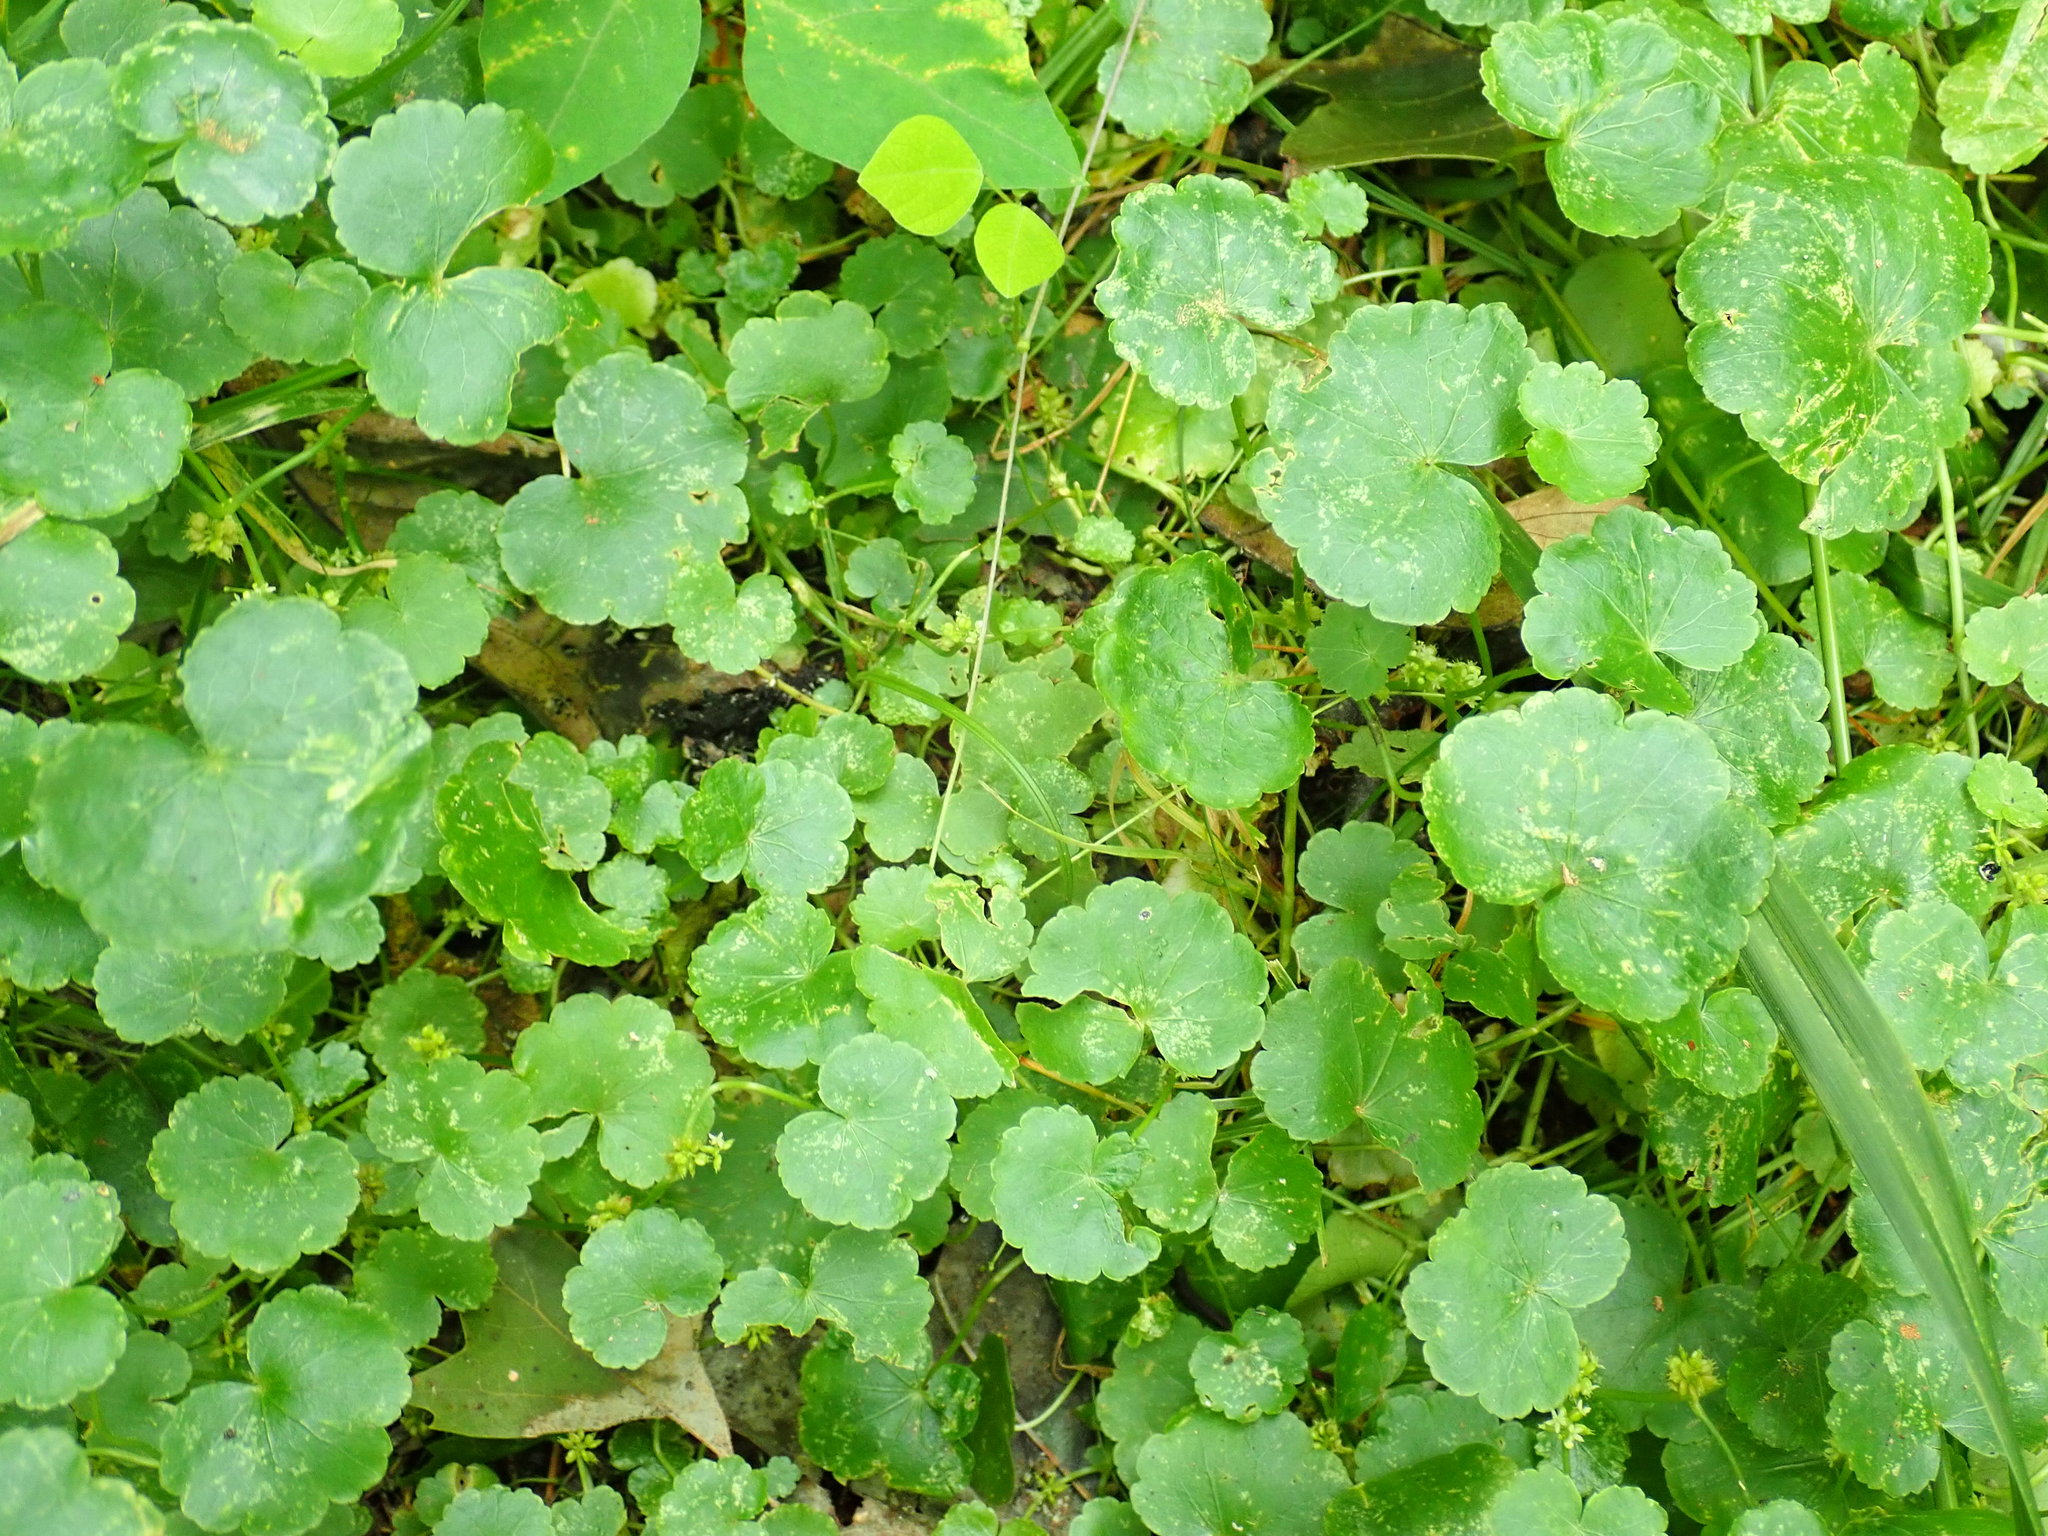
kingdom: Plantae
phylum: Tracheophyta
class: Magnoliopsida
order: Apiales
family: Araliaceae
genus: Hydrocotyle
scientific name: Hydrocotyle americana
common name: American water-pennywort
